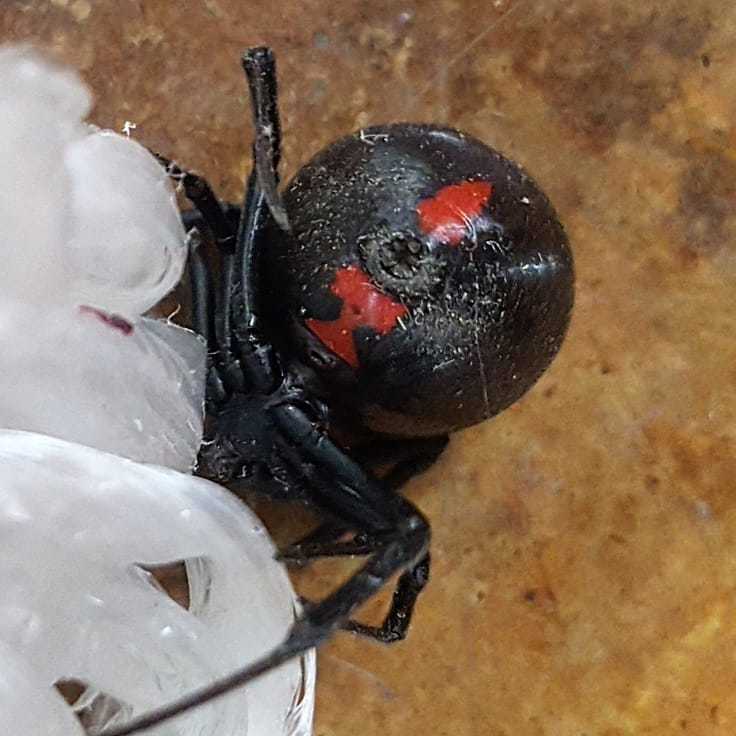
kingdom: Animalia
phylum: Arthropoda
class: Arachnida
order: Araneae
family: Theridiidae
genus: Latrodectus
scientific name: Latrodectus mactans
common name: Cobweb spiders
